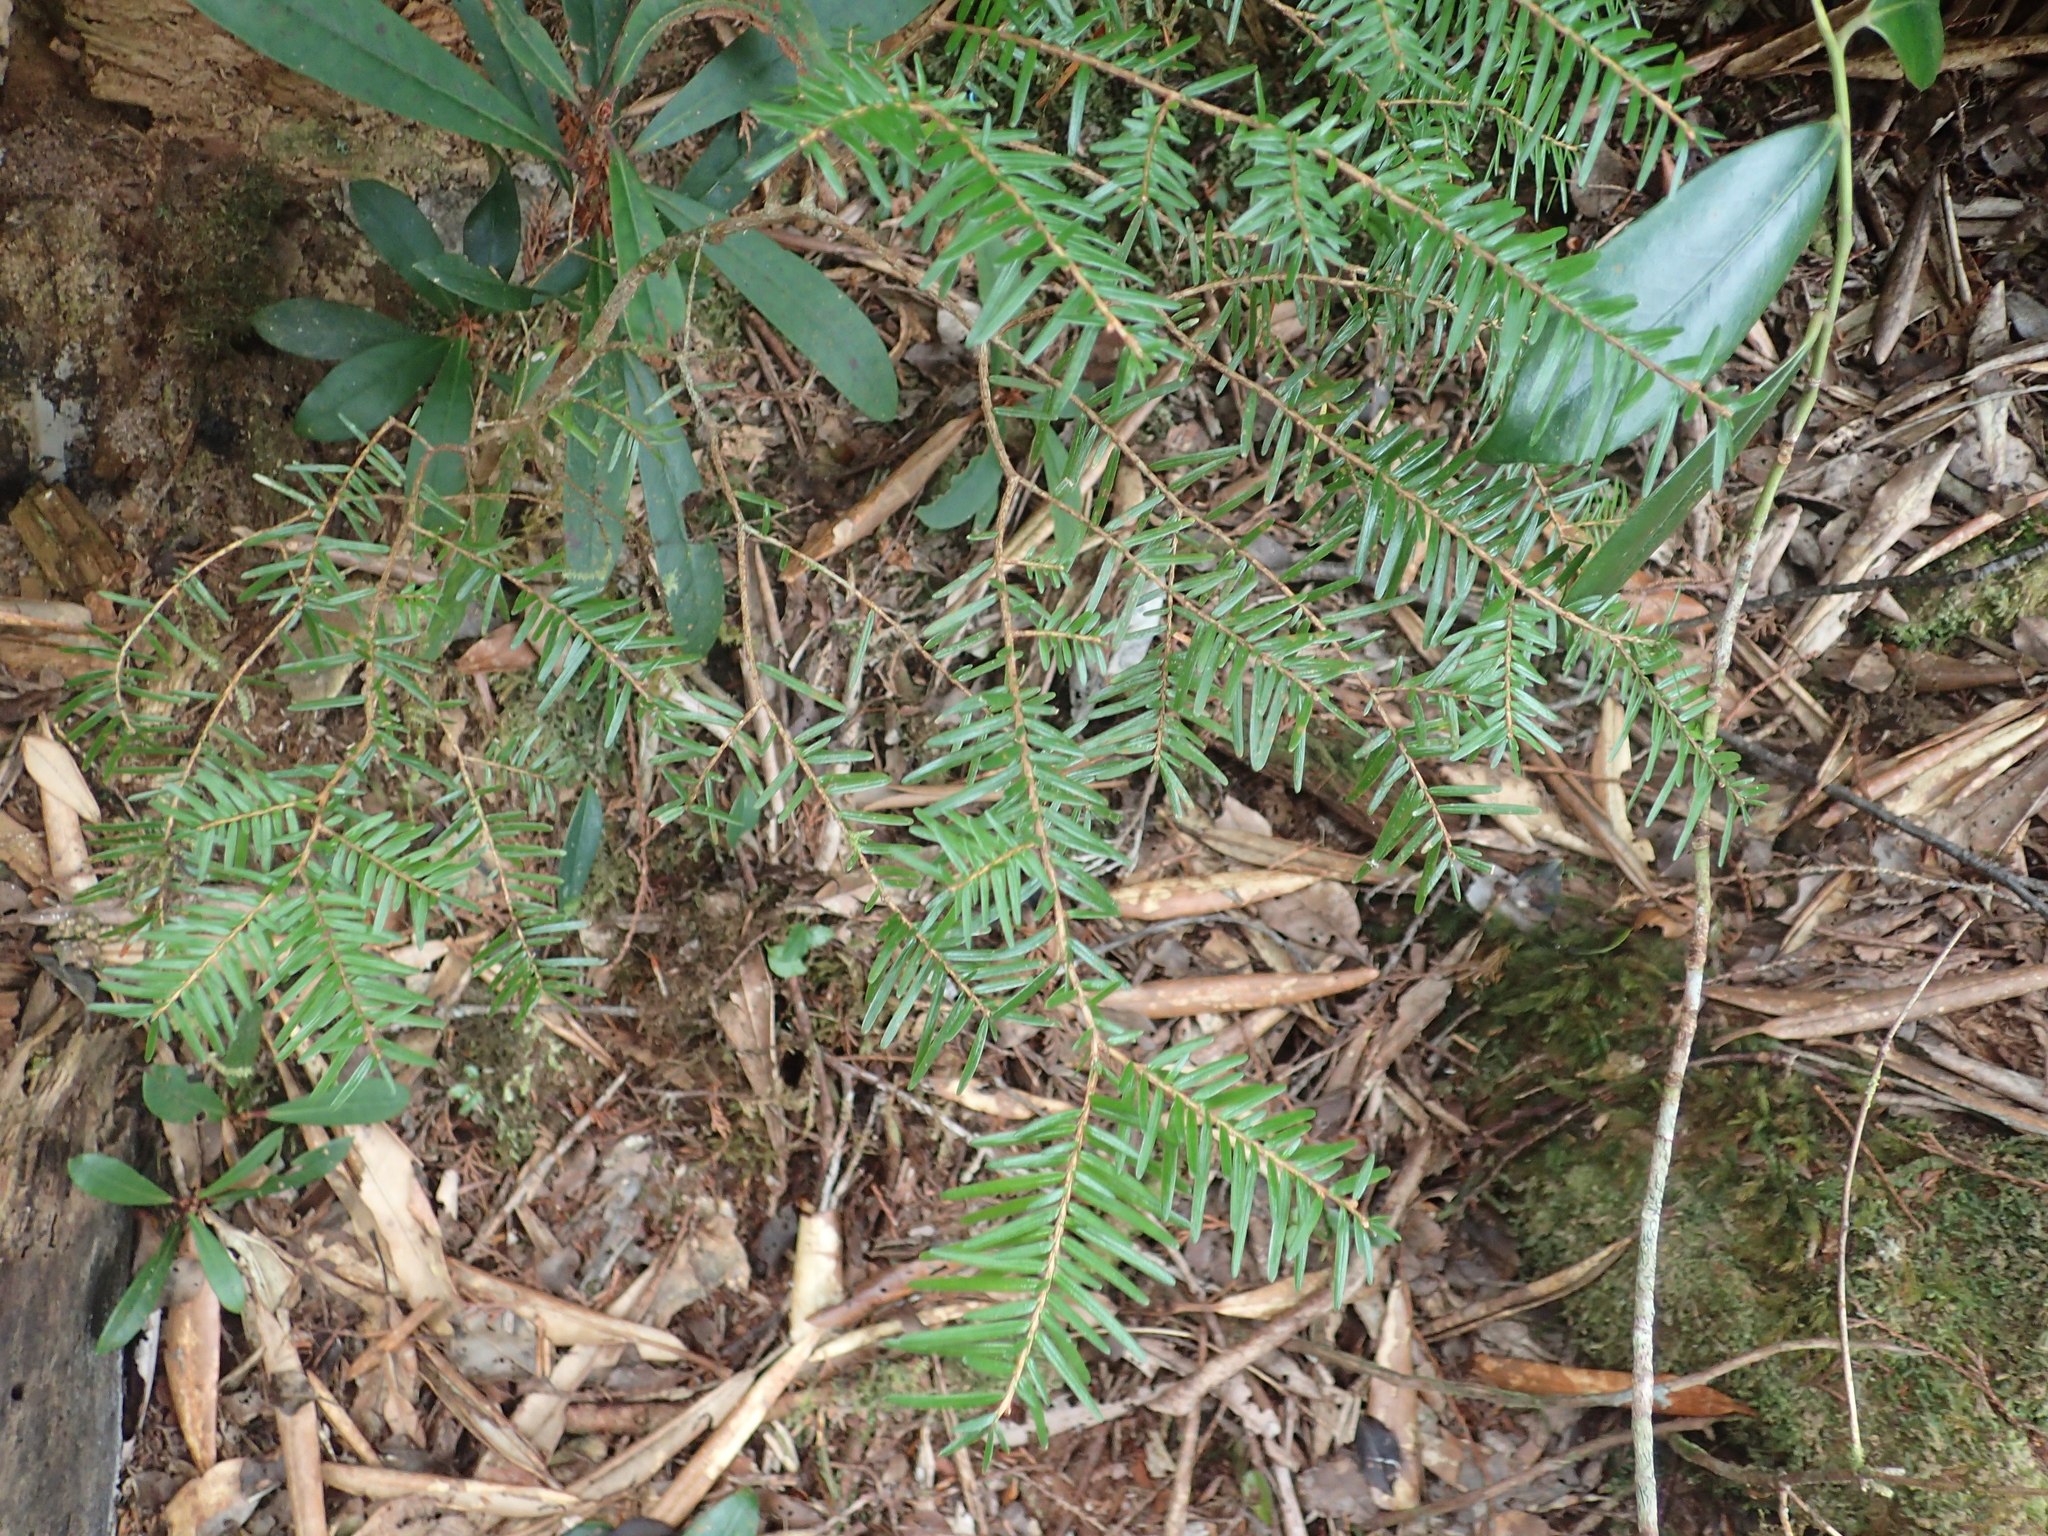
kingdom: Plantae
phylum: Tracheophyta
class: Pinopsida
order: Pinales
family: Pinaceae
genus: Tsuga
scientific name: Tsuga chinensis
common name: Chinese hemlock
